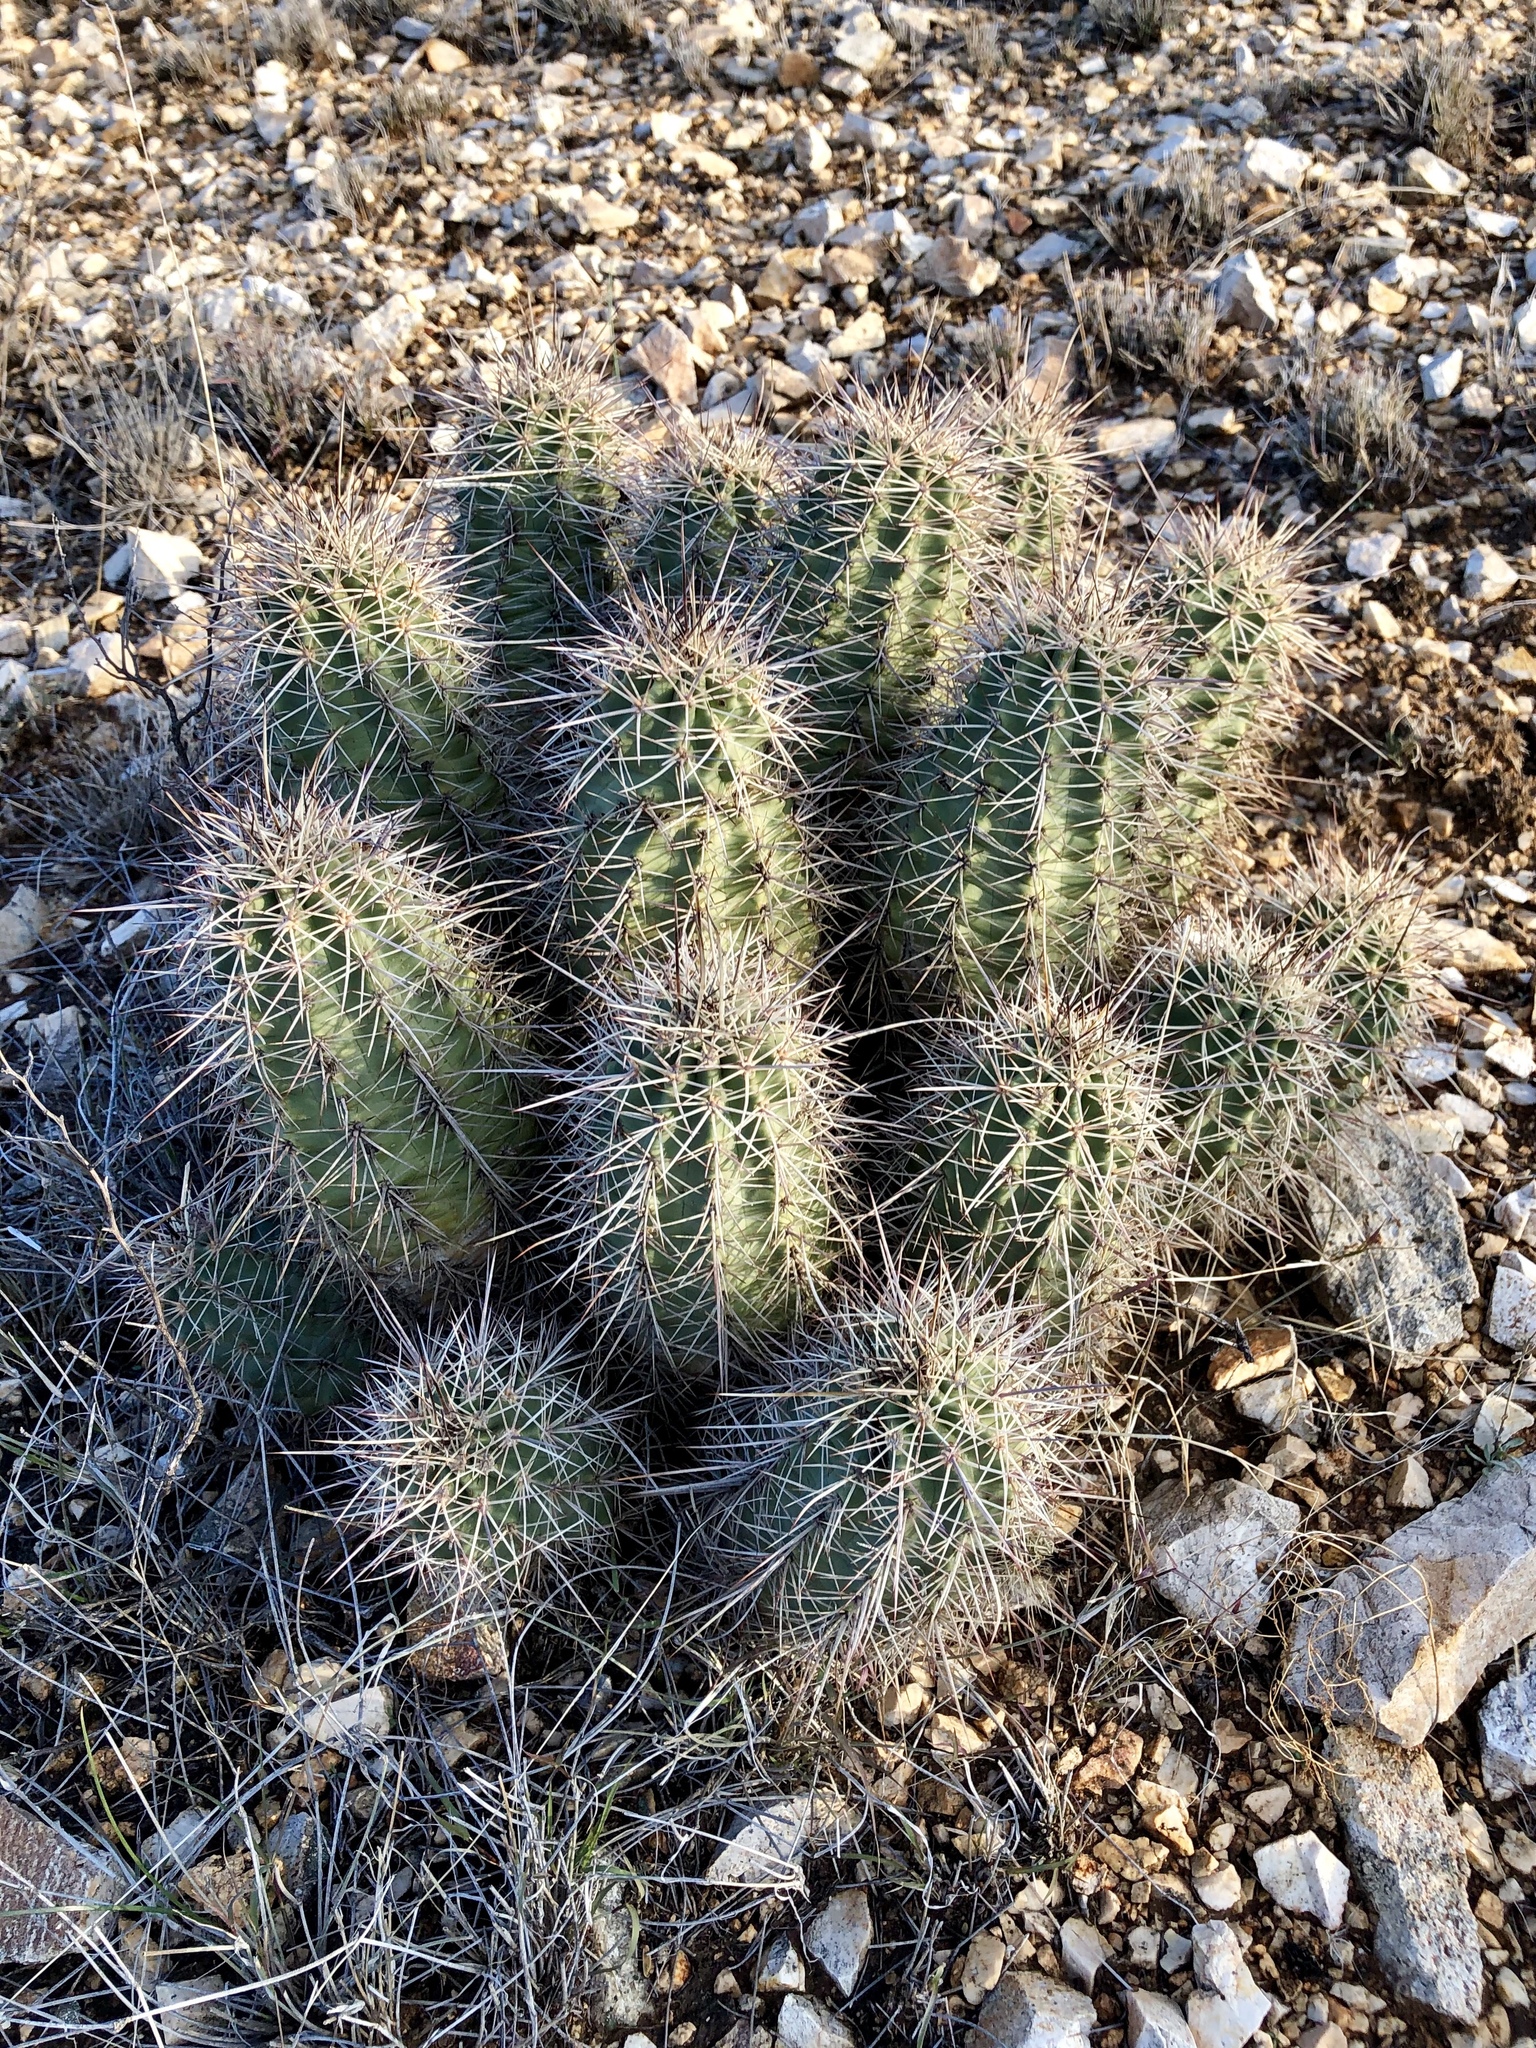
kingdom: Plantae
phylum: Tracheophyta
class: Magnoliopsida
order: Caryophyllales
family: Cactaceae
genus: Echinocereus
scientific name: Echinocereus coccineus
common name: Scarlet hedgehog cactus
